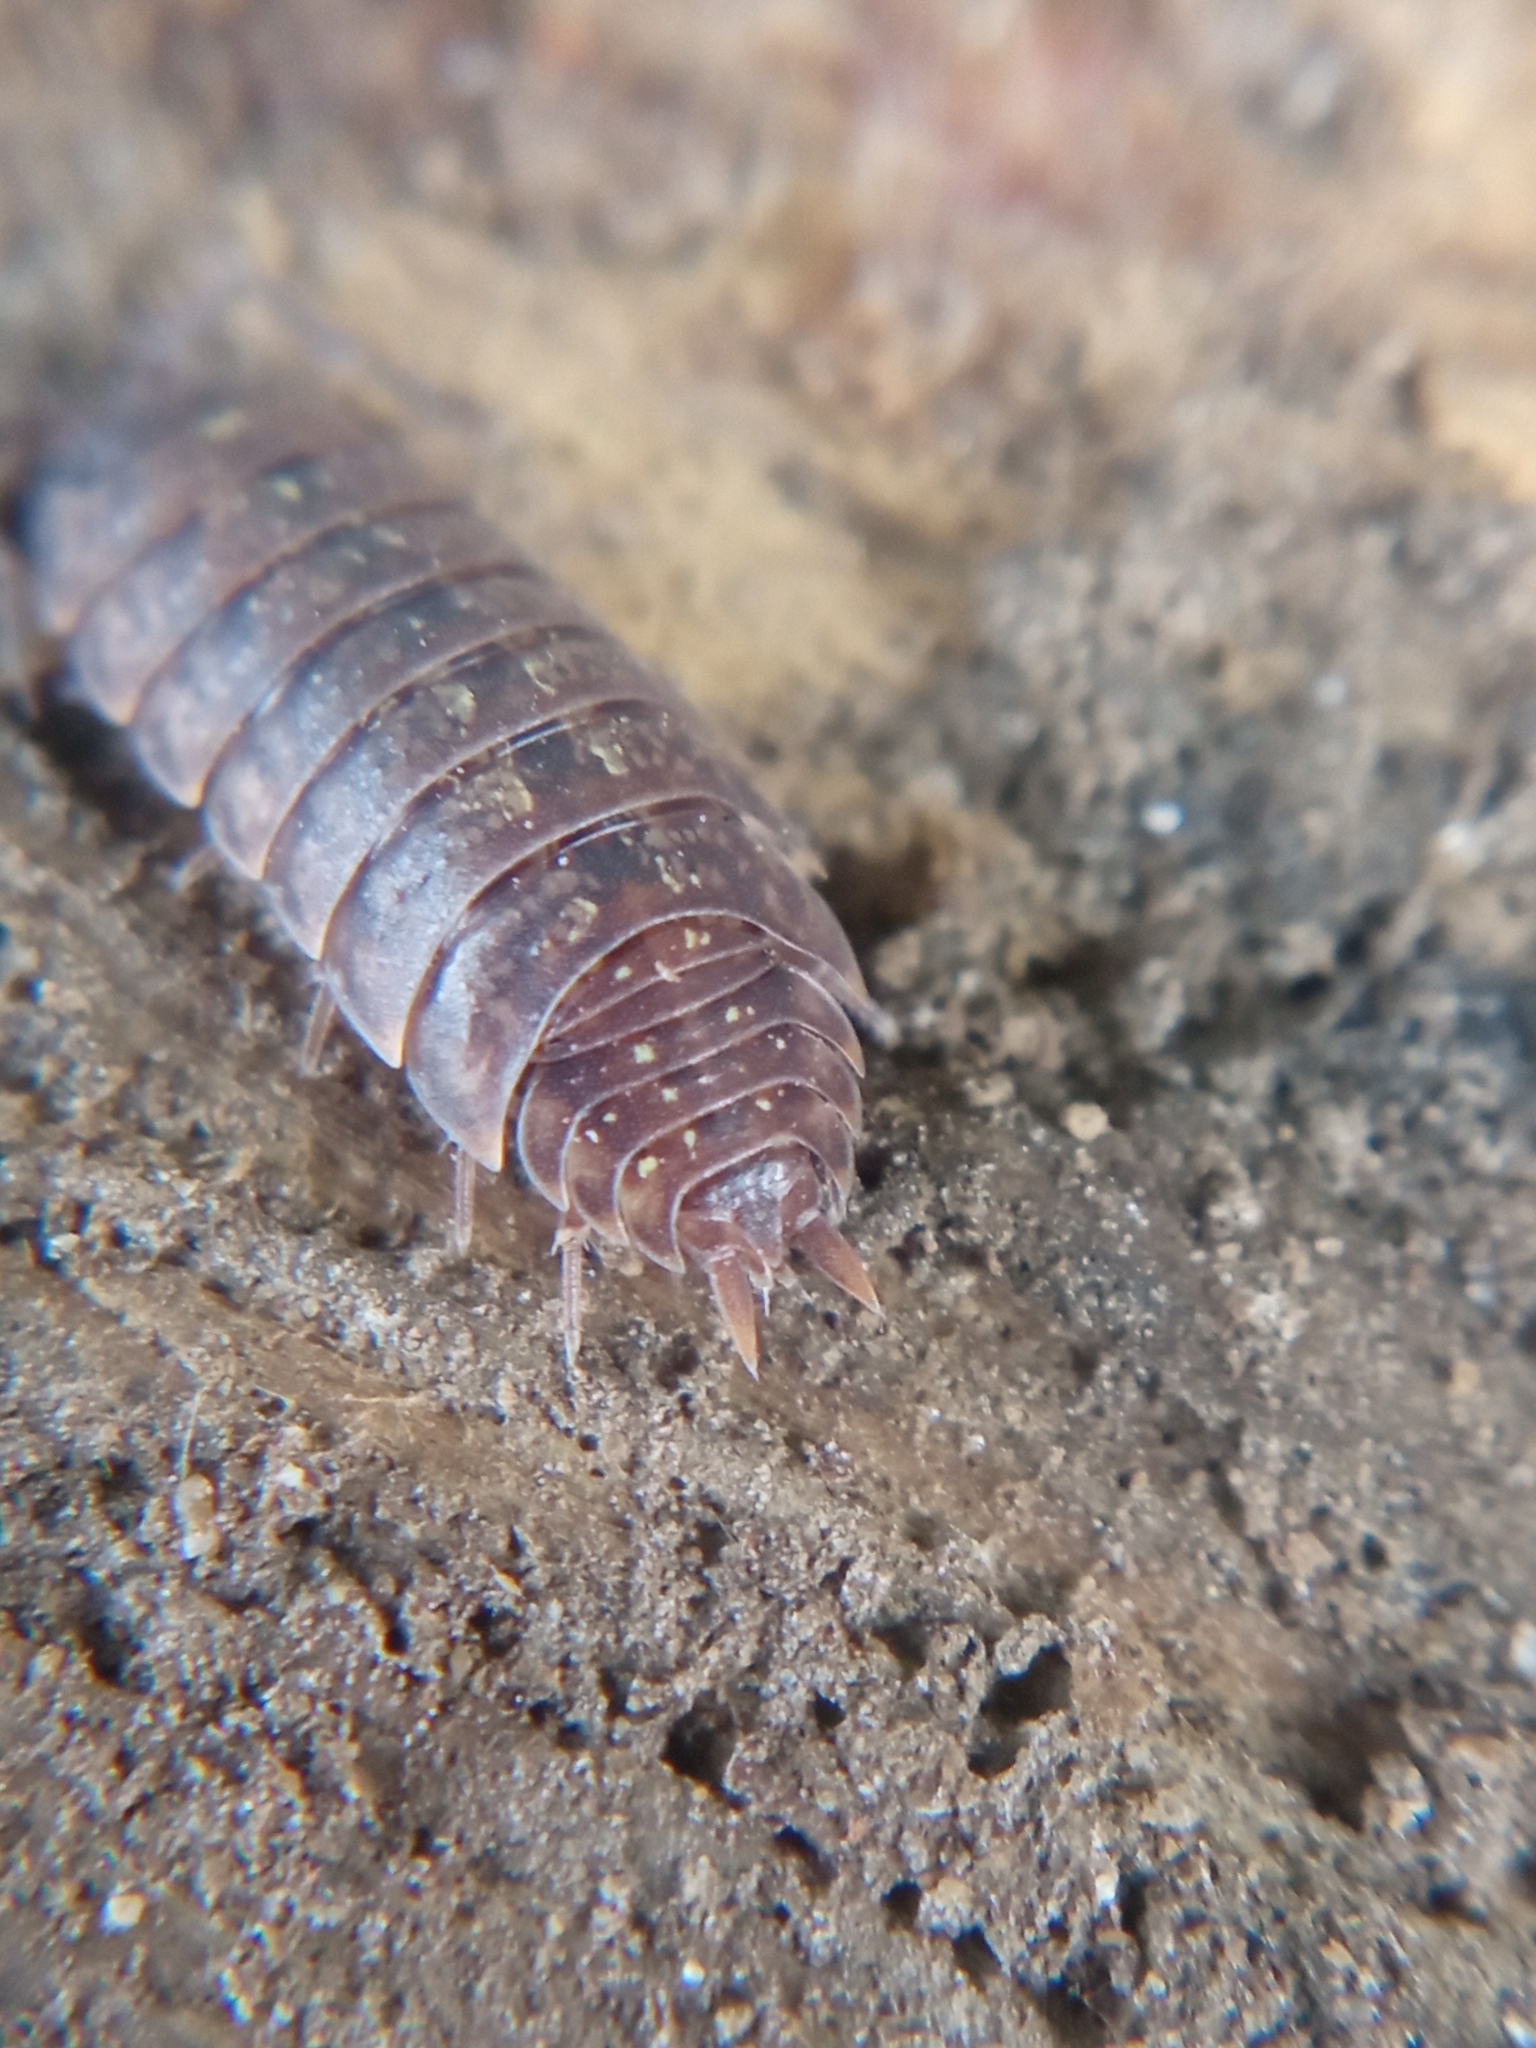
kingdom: Animalia
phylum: Arthropoda
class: Malacostraca
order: Isopoda
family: Porcellionidae
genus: Porcellio
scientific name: Porcellio monticola
